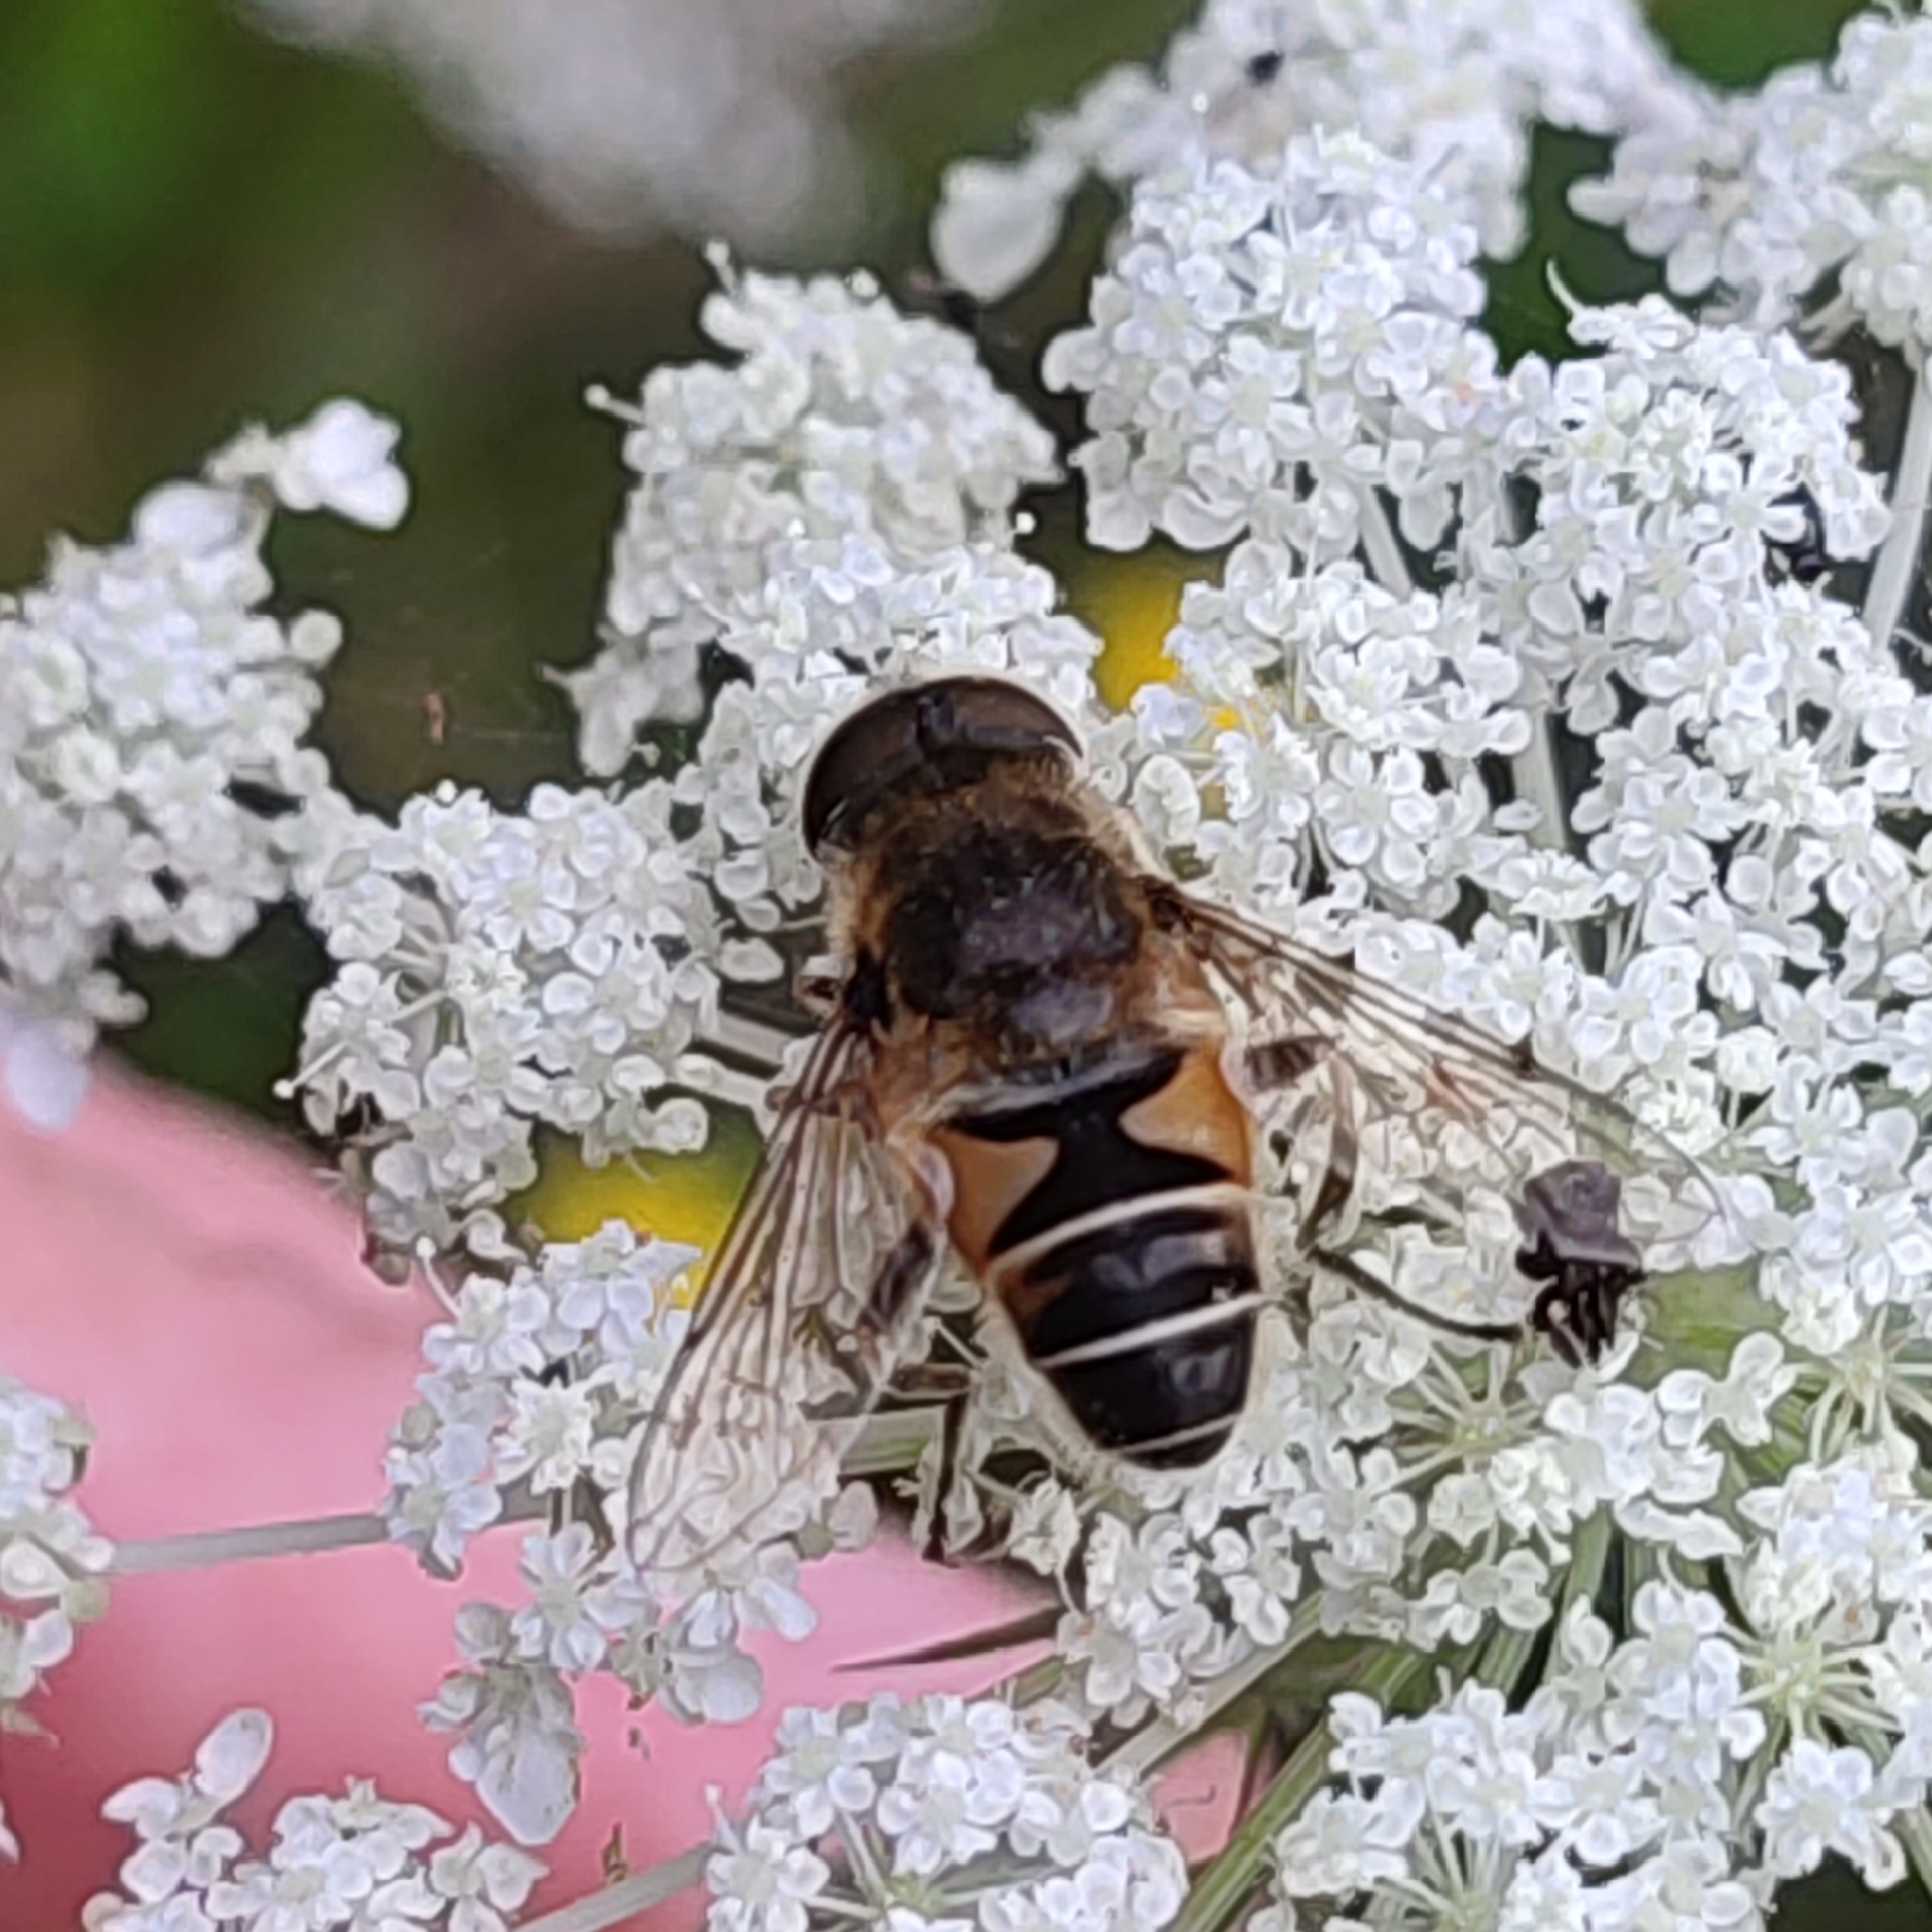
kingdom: Animalia
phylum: Arthropoda
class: Insecta
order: Diptera
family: Syrphidae
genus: Eristalis
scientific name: Eristalis nemorum
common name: Orange-spined drone fly
